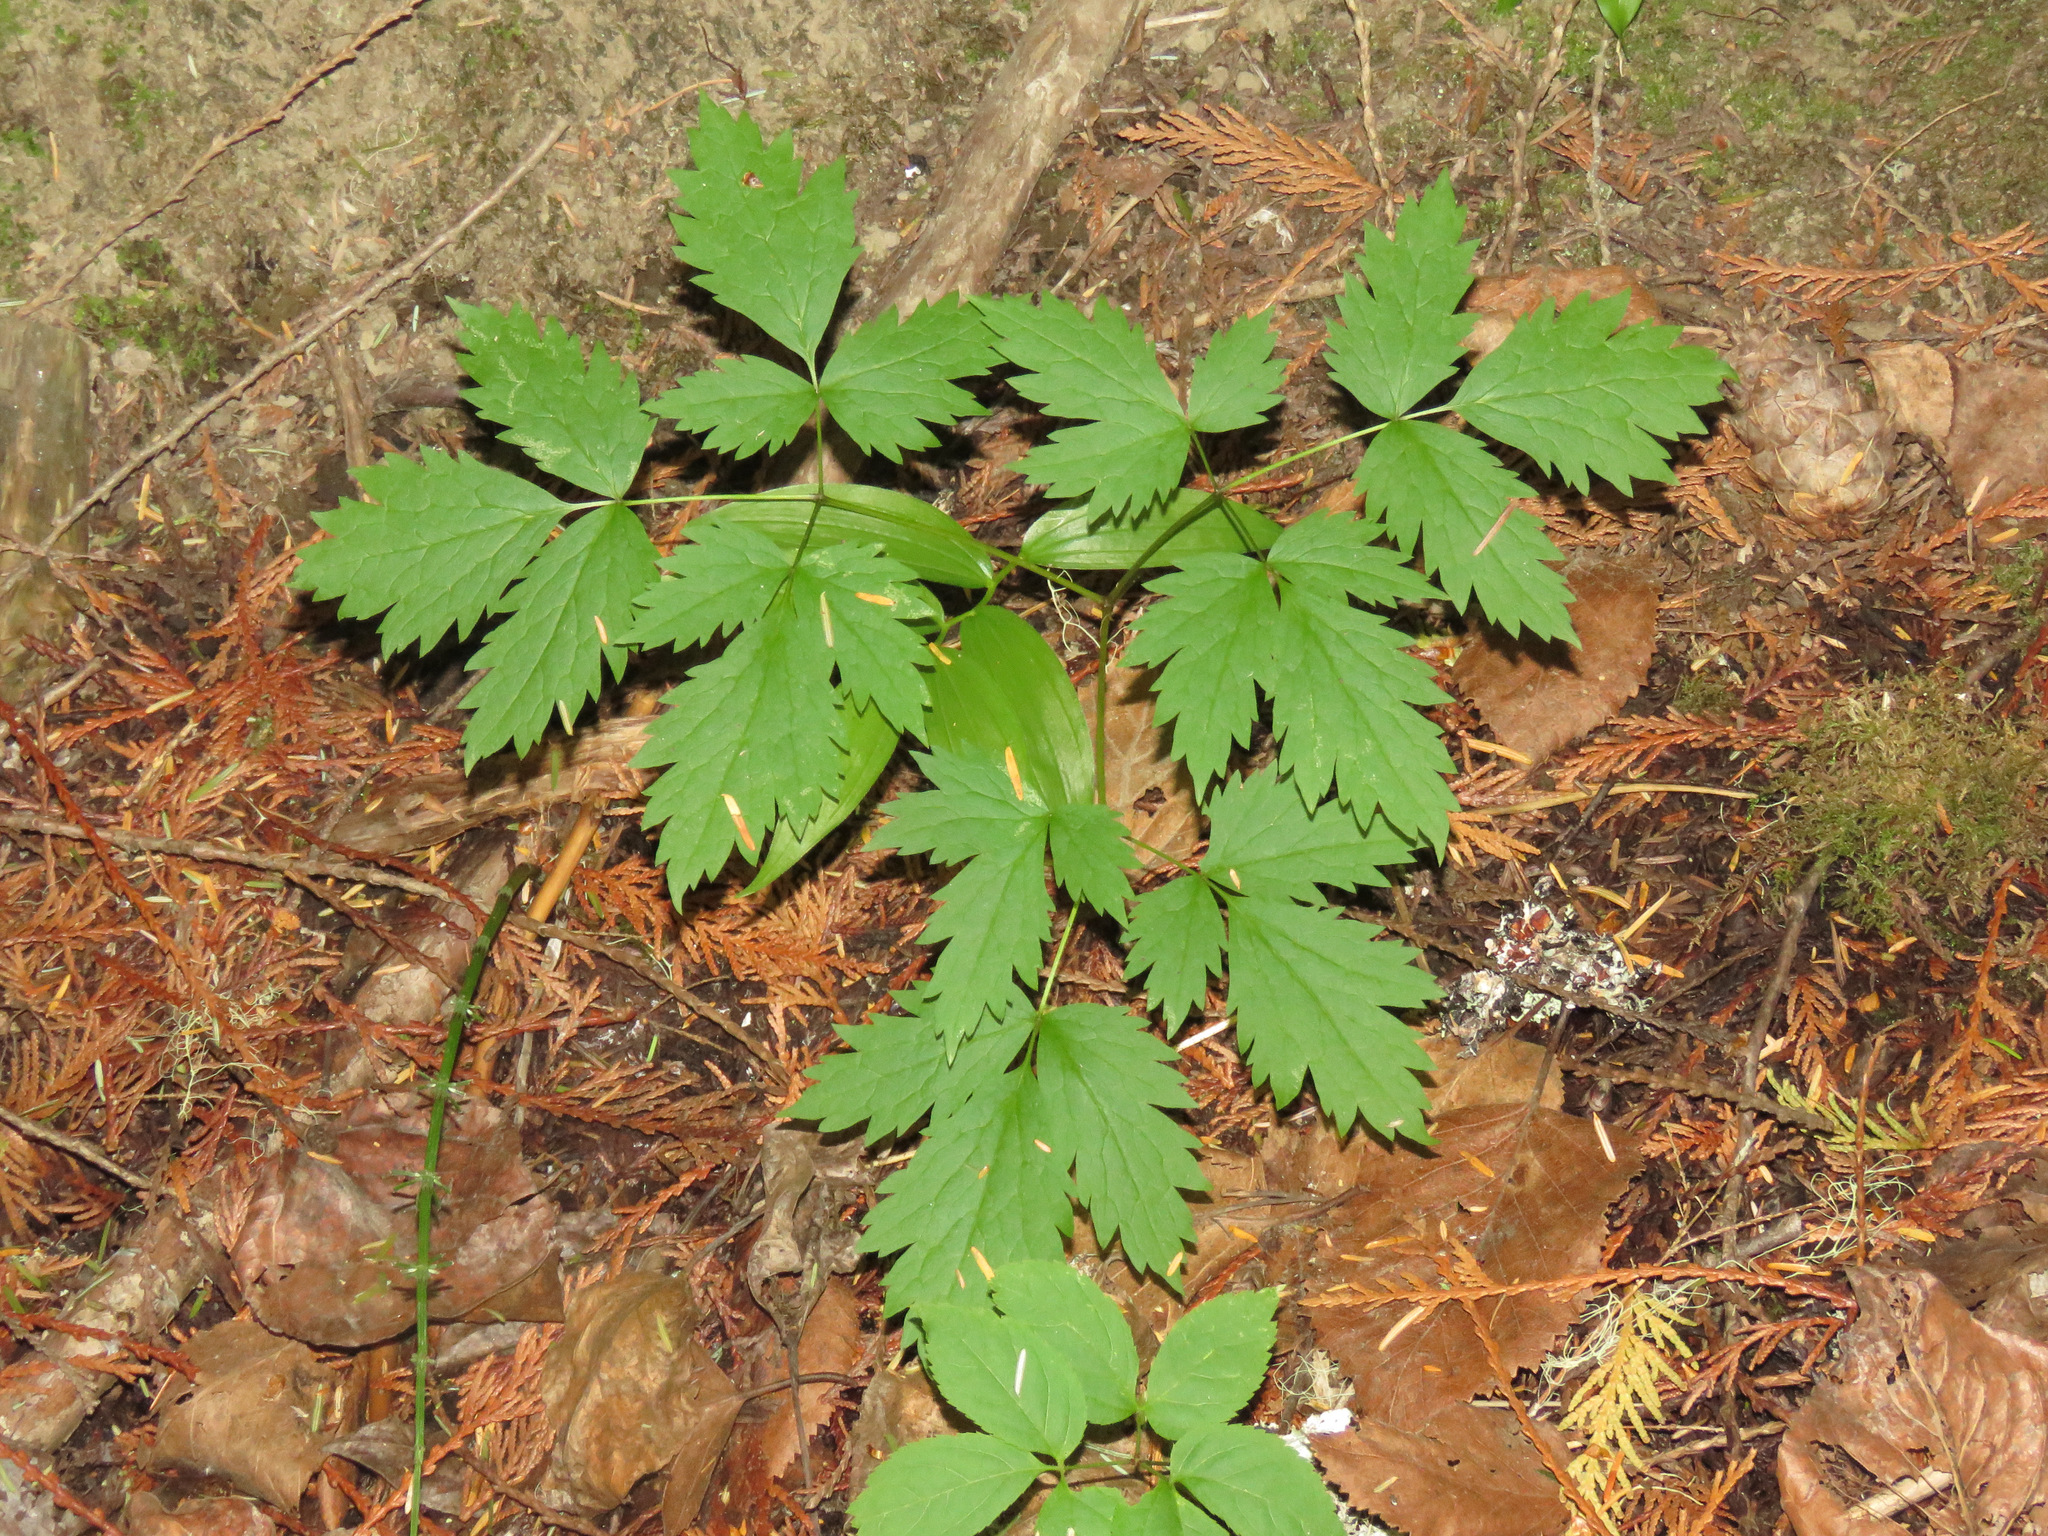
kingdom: Plantae
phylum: Tracheophyta
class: Magnoliopsida
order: Ranunculales
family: Ranunculaceae
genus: Actaea
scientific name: Actaea rubra
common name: Red baneberry
